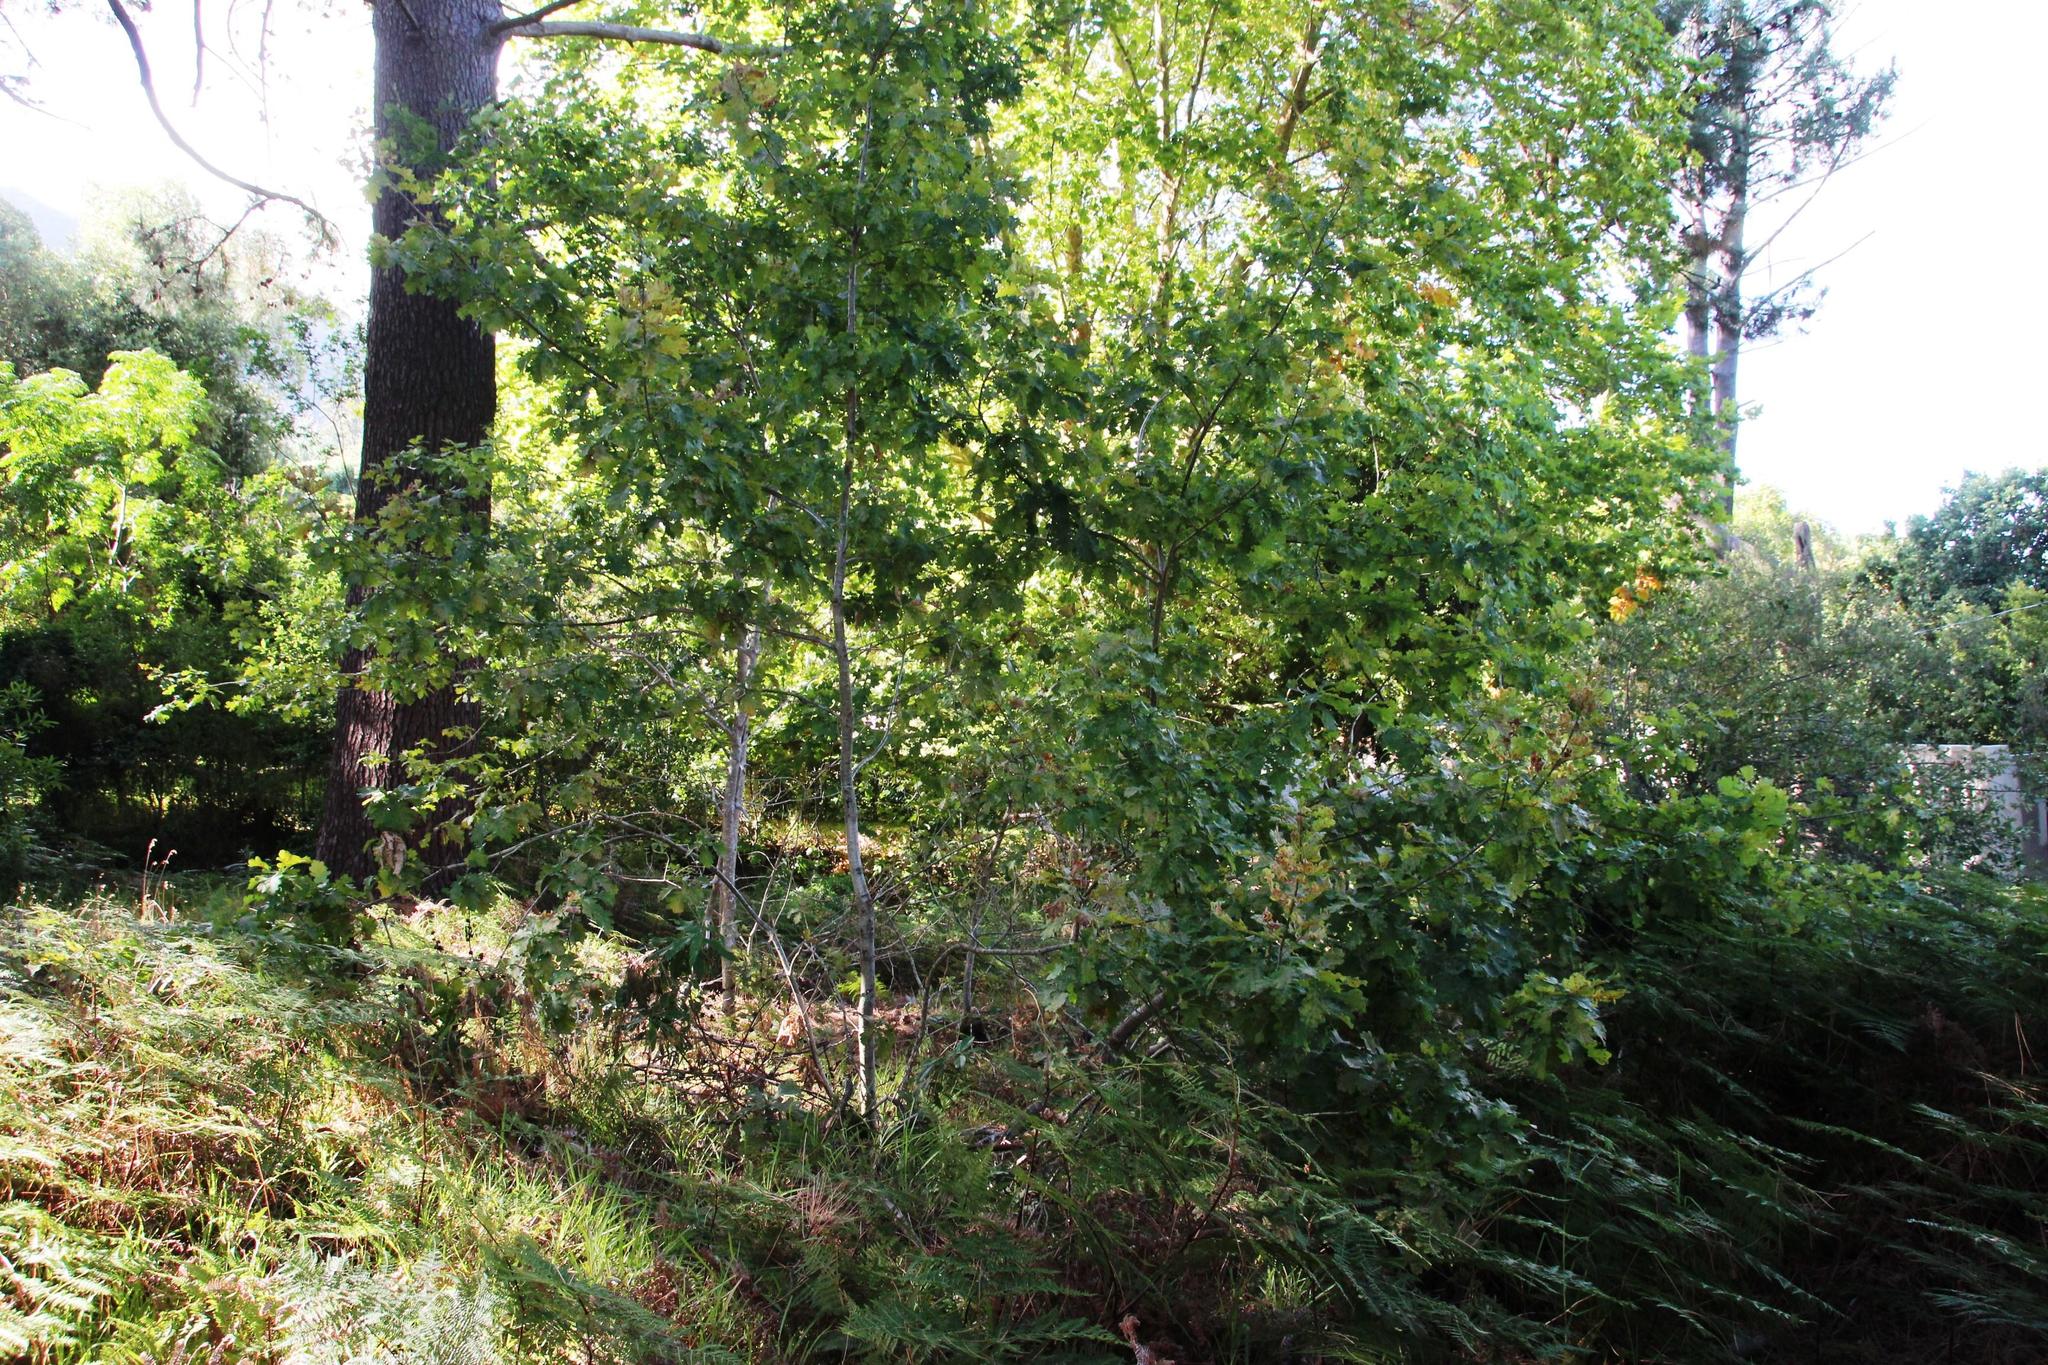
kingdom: Plantae
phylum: Tracheophyta
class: Magnoliopsida
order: Fagales
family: Fagaceae
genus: Quercus
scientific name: Quercus robur
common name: Pedunculate oak
